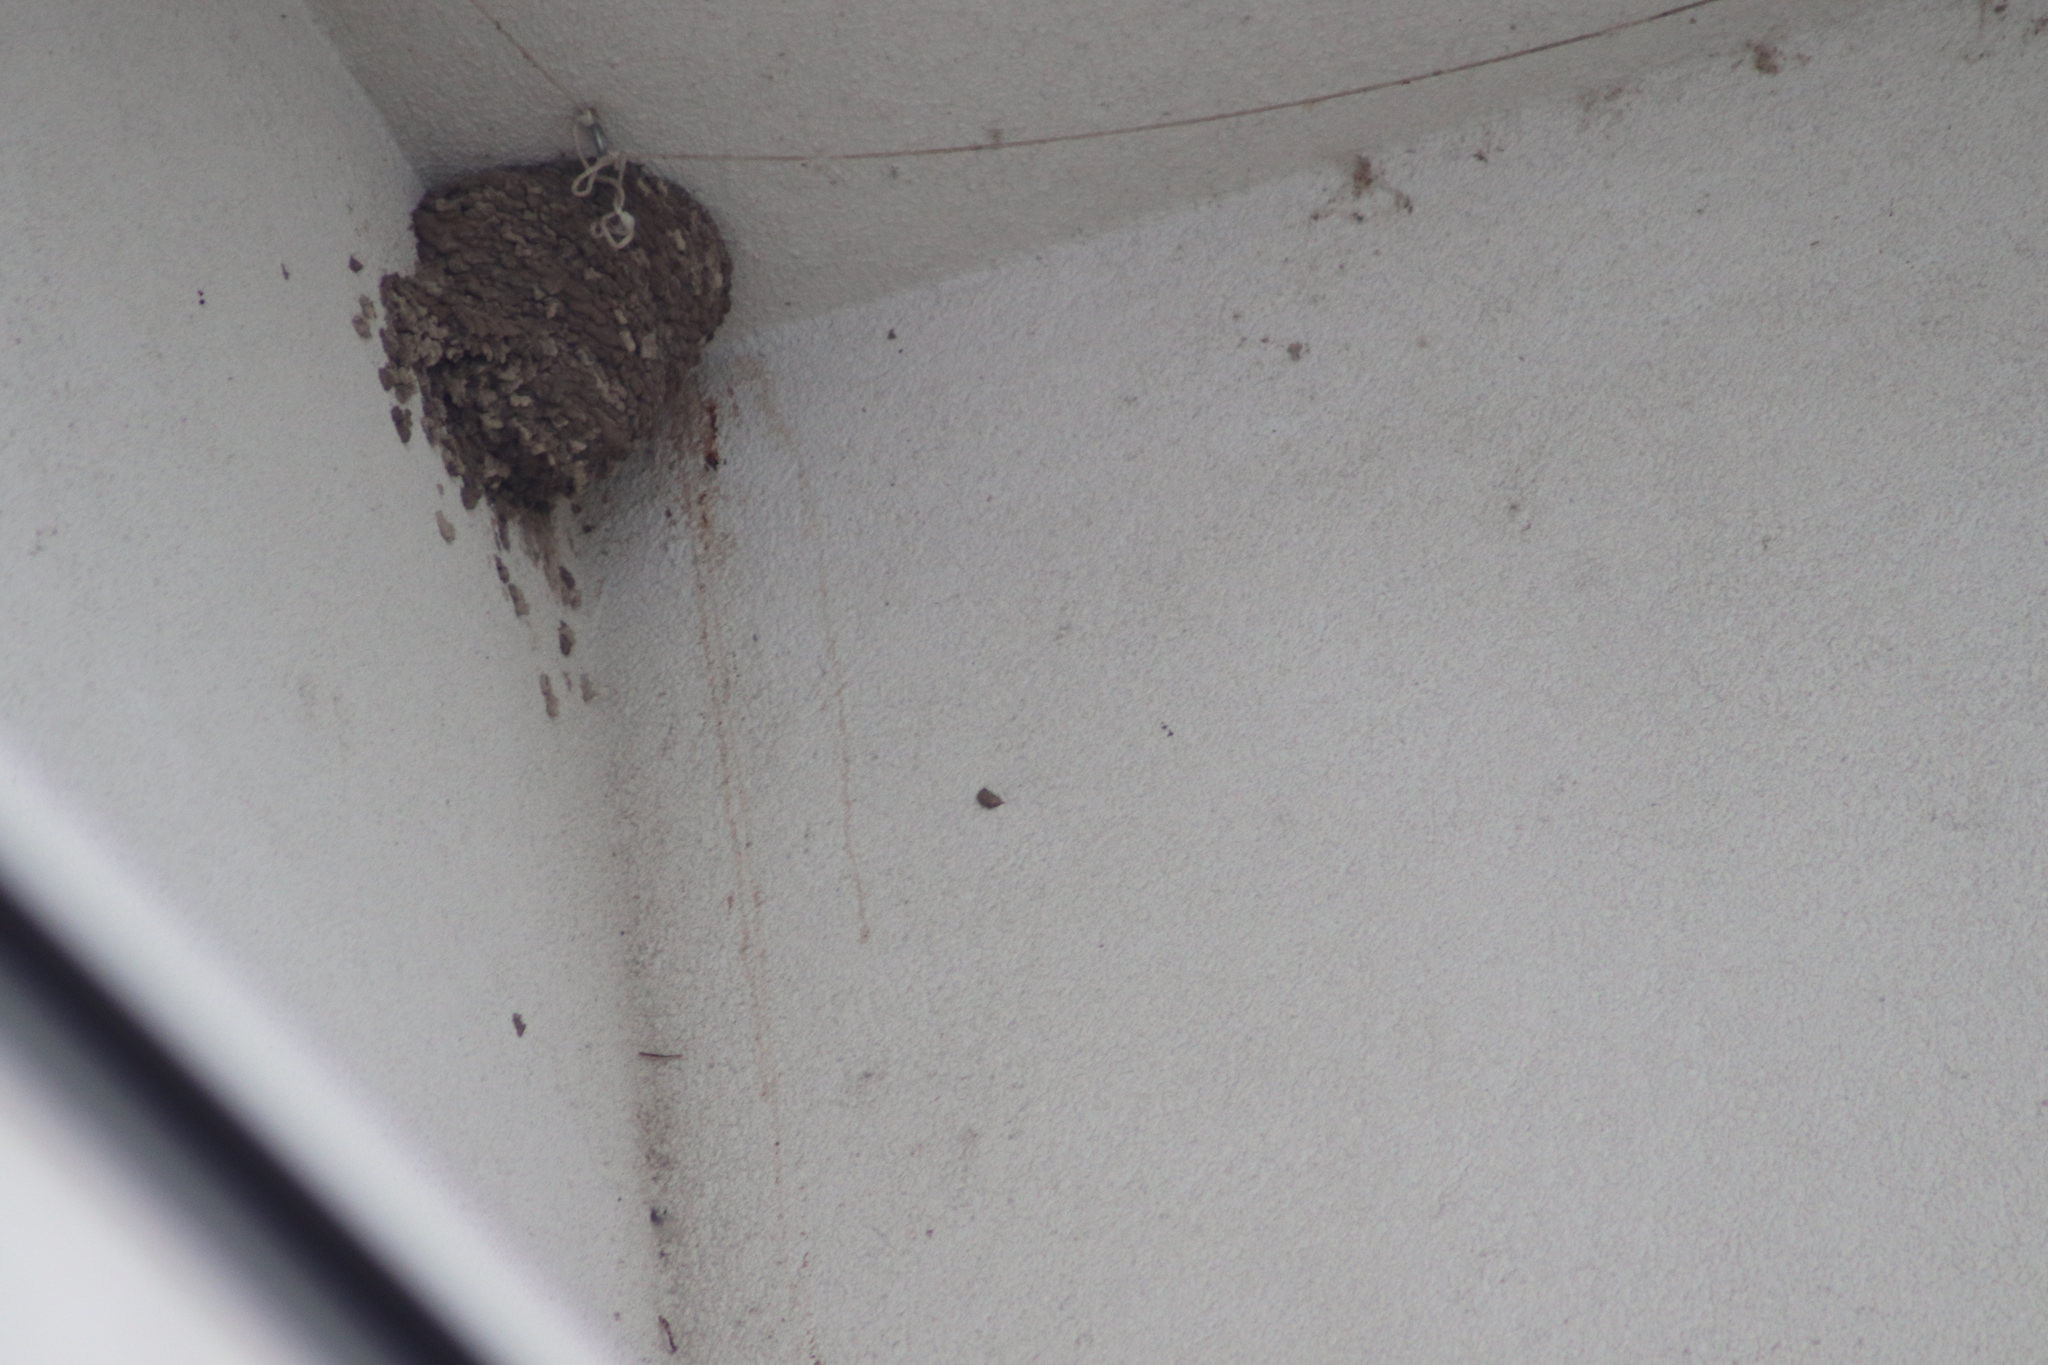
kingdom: Animalia
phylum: Chordata
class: Aves
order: Passeriformes
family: Hirundinidae
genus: Delichon
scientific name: Delichon urbicum
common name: Common house martin
